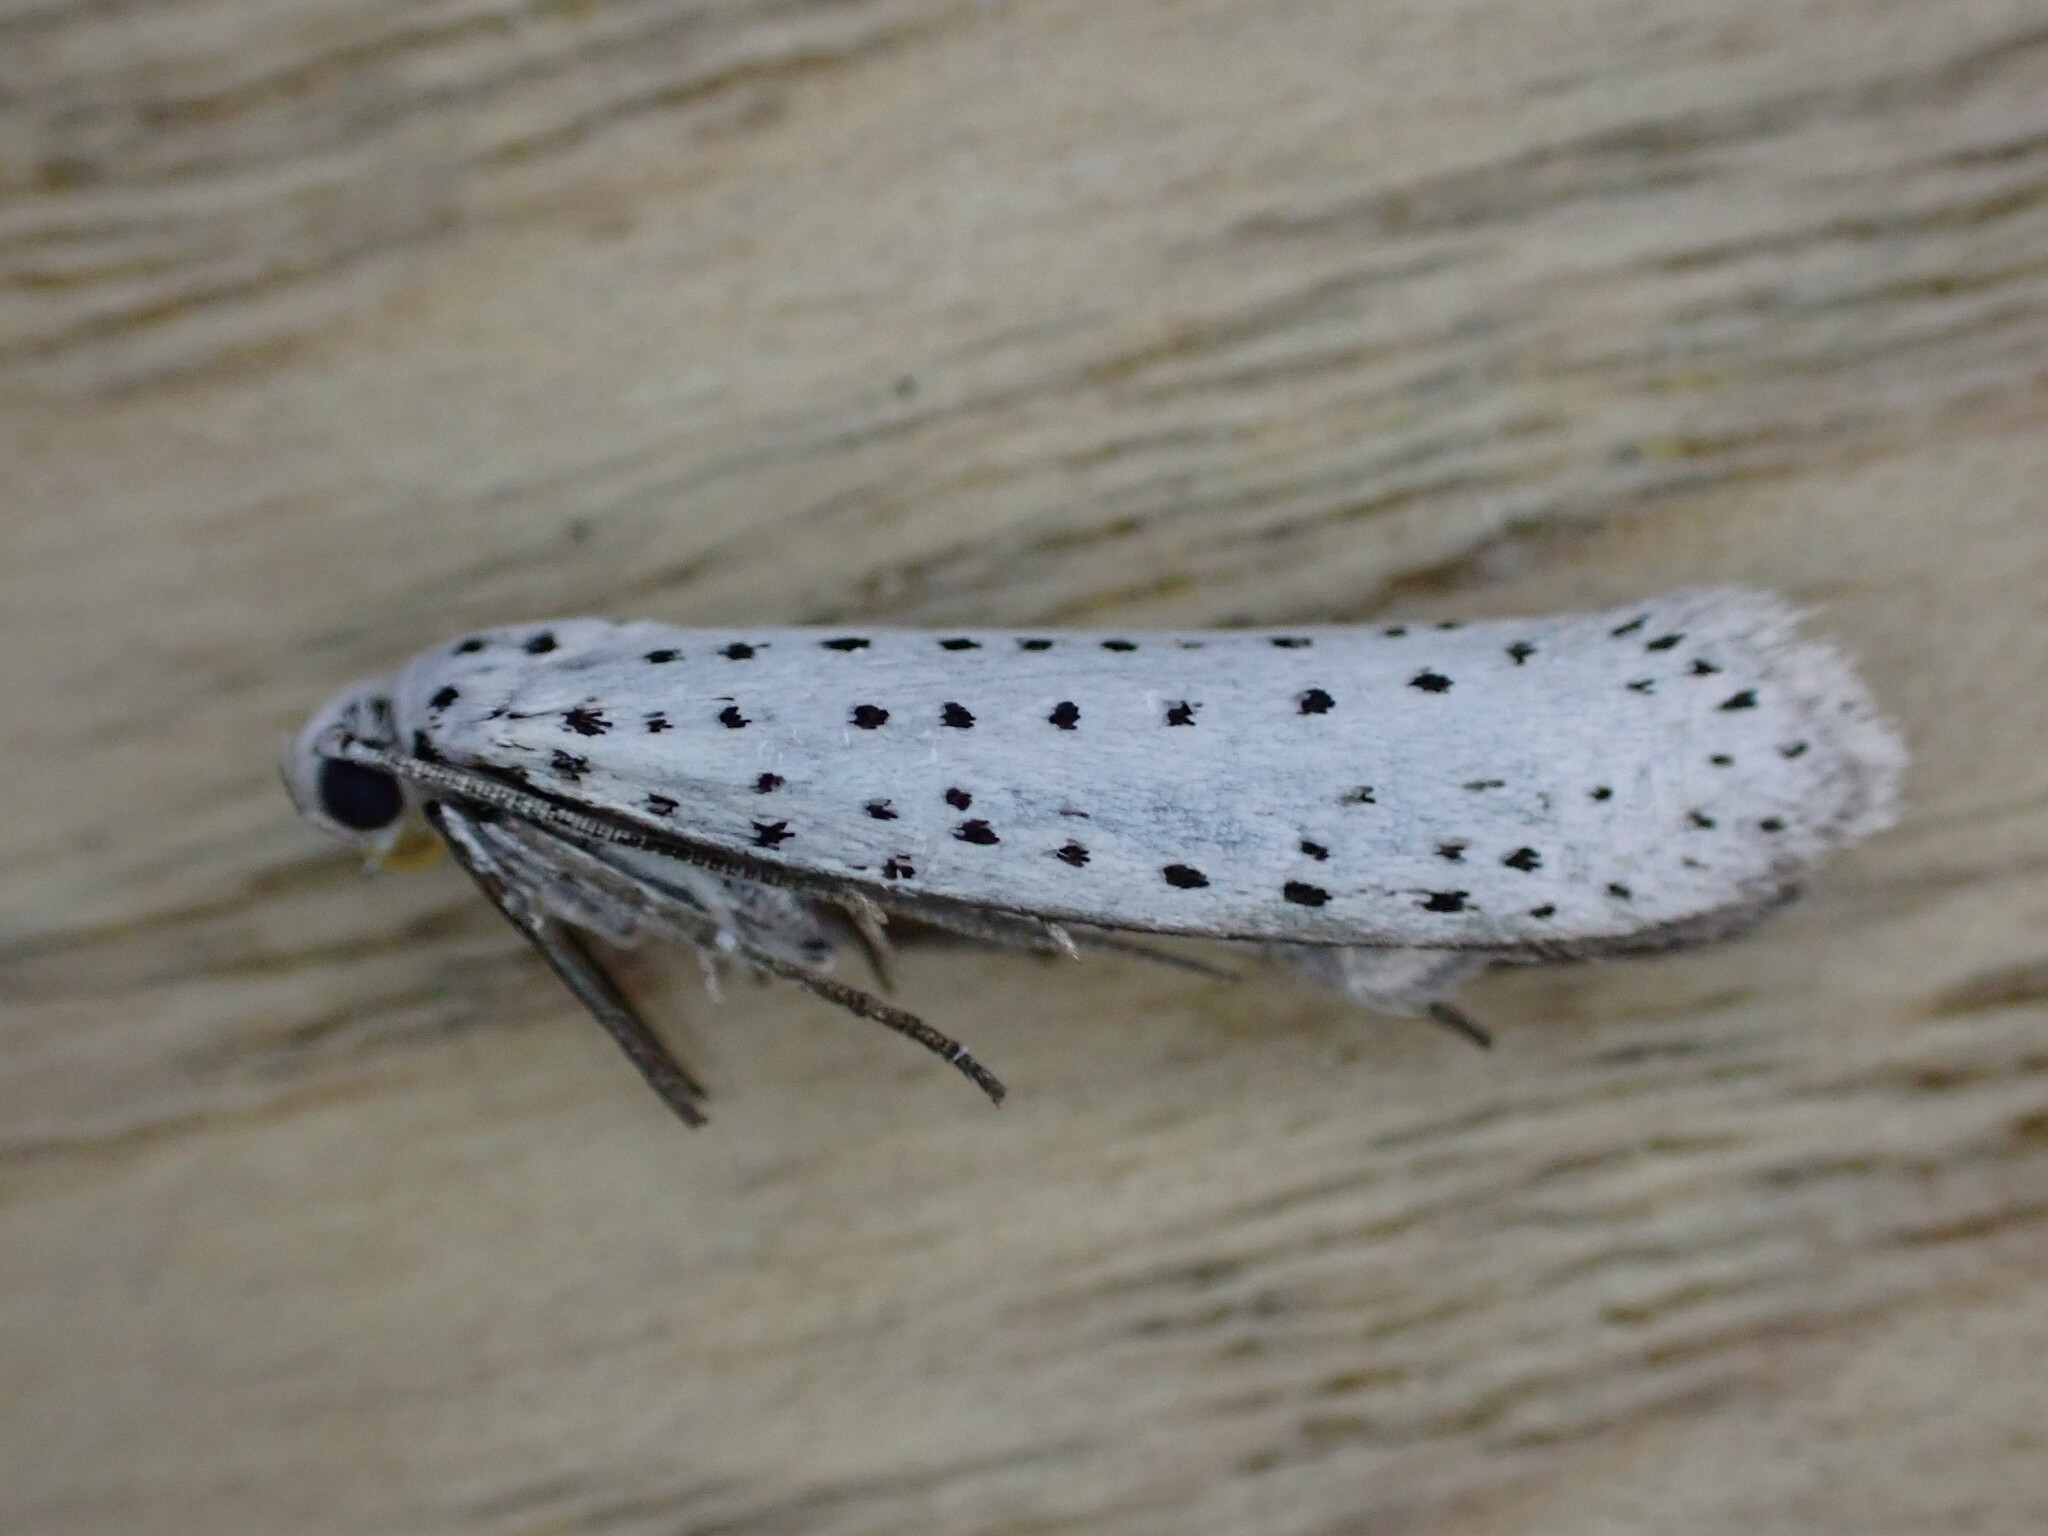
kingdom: Animalia
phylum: Arthropoda
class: Insecta
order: Lepidoptera
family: Yponomeutidae
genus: Yponomeuta
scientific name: Yponomeuta evonymella
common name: Bird-cherry ermine
